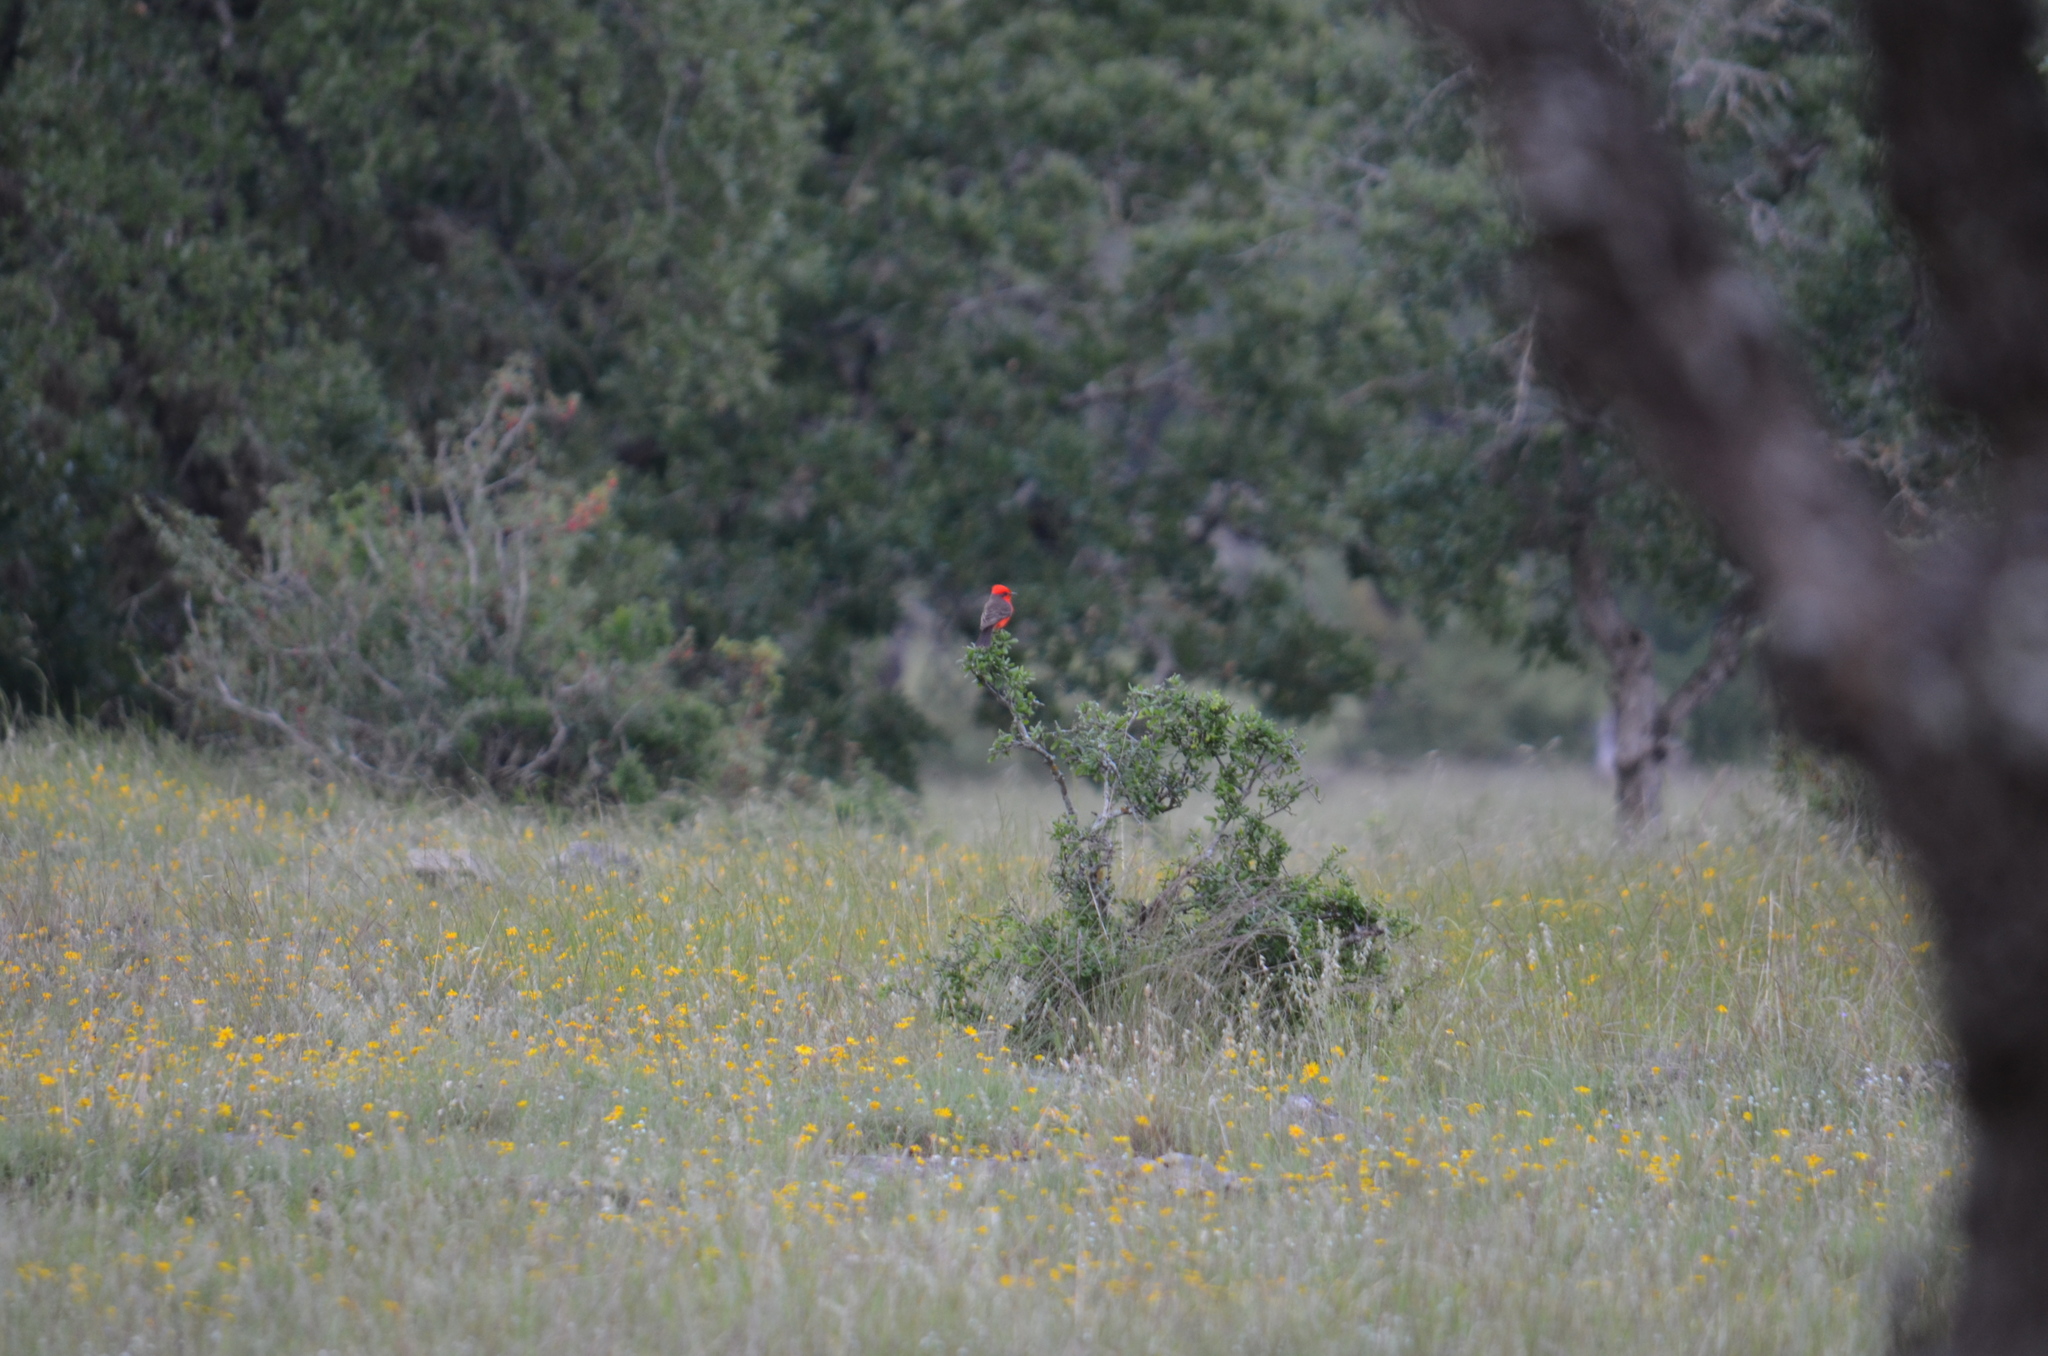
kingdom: Animalia
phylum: Chordata
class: Aves
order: Passeriformes
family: Tyrannidae
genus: Pyrocephalus
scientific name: Pyrocephalus rubinus
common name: Vermilion flycatcher
